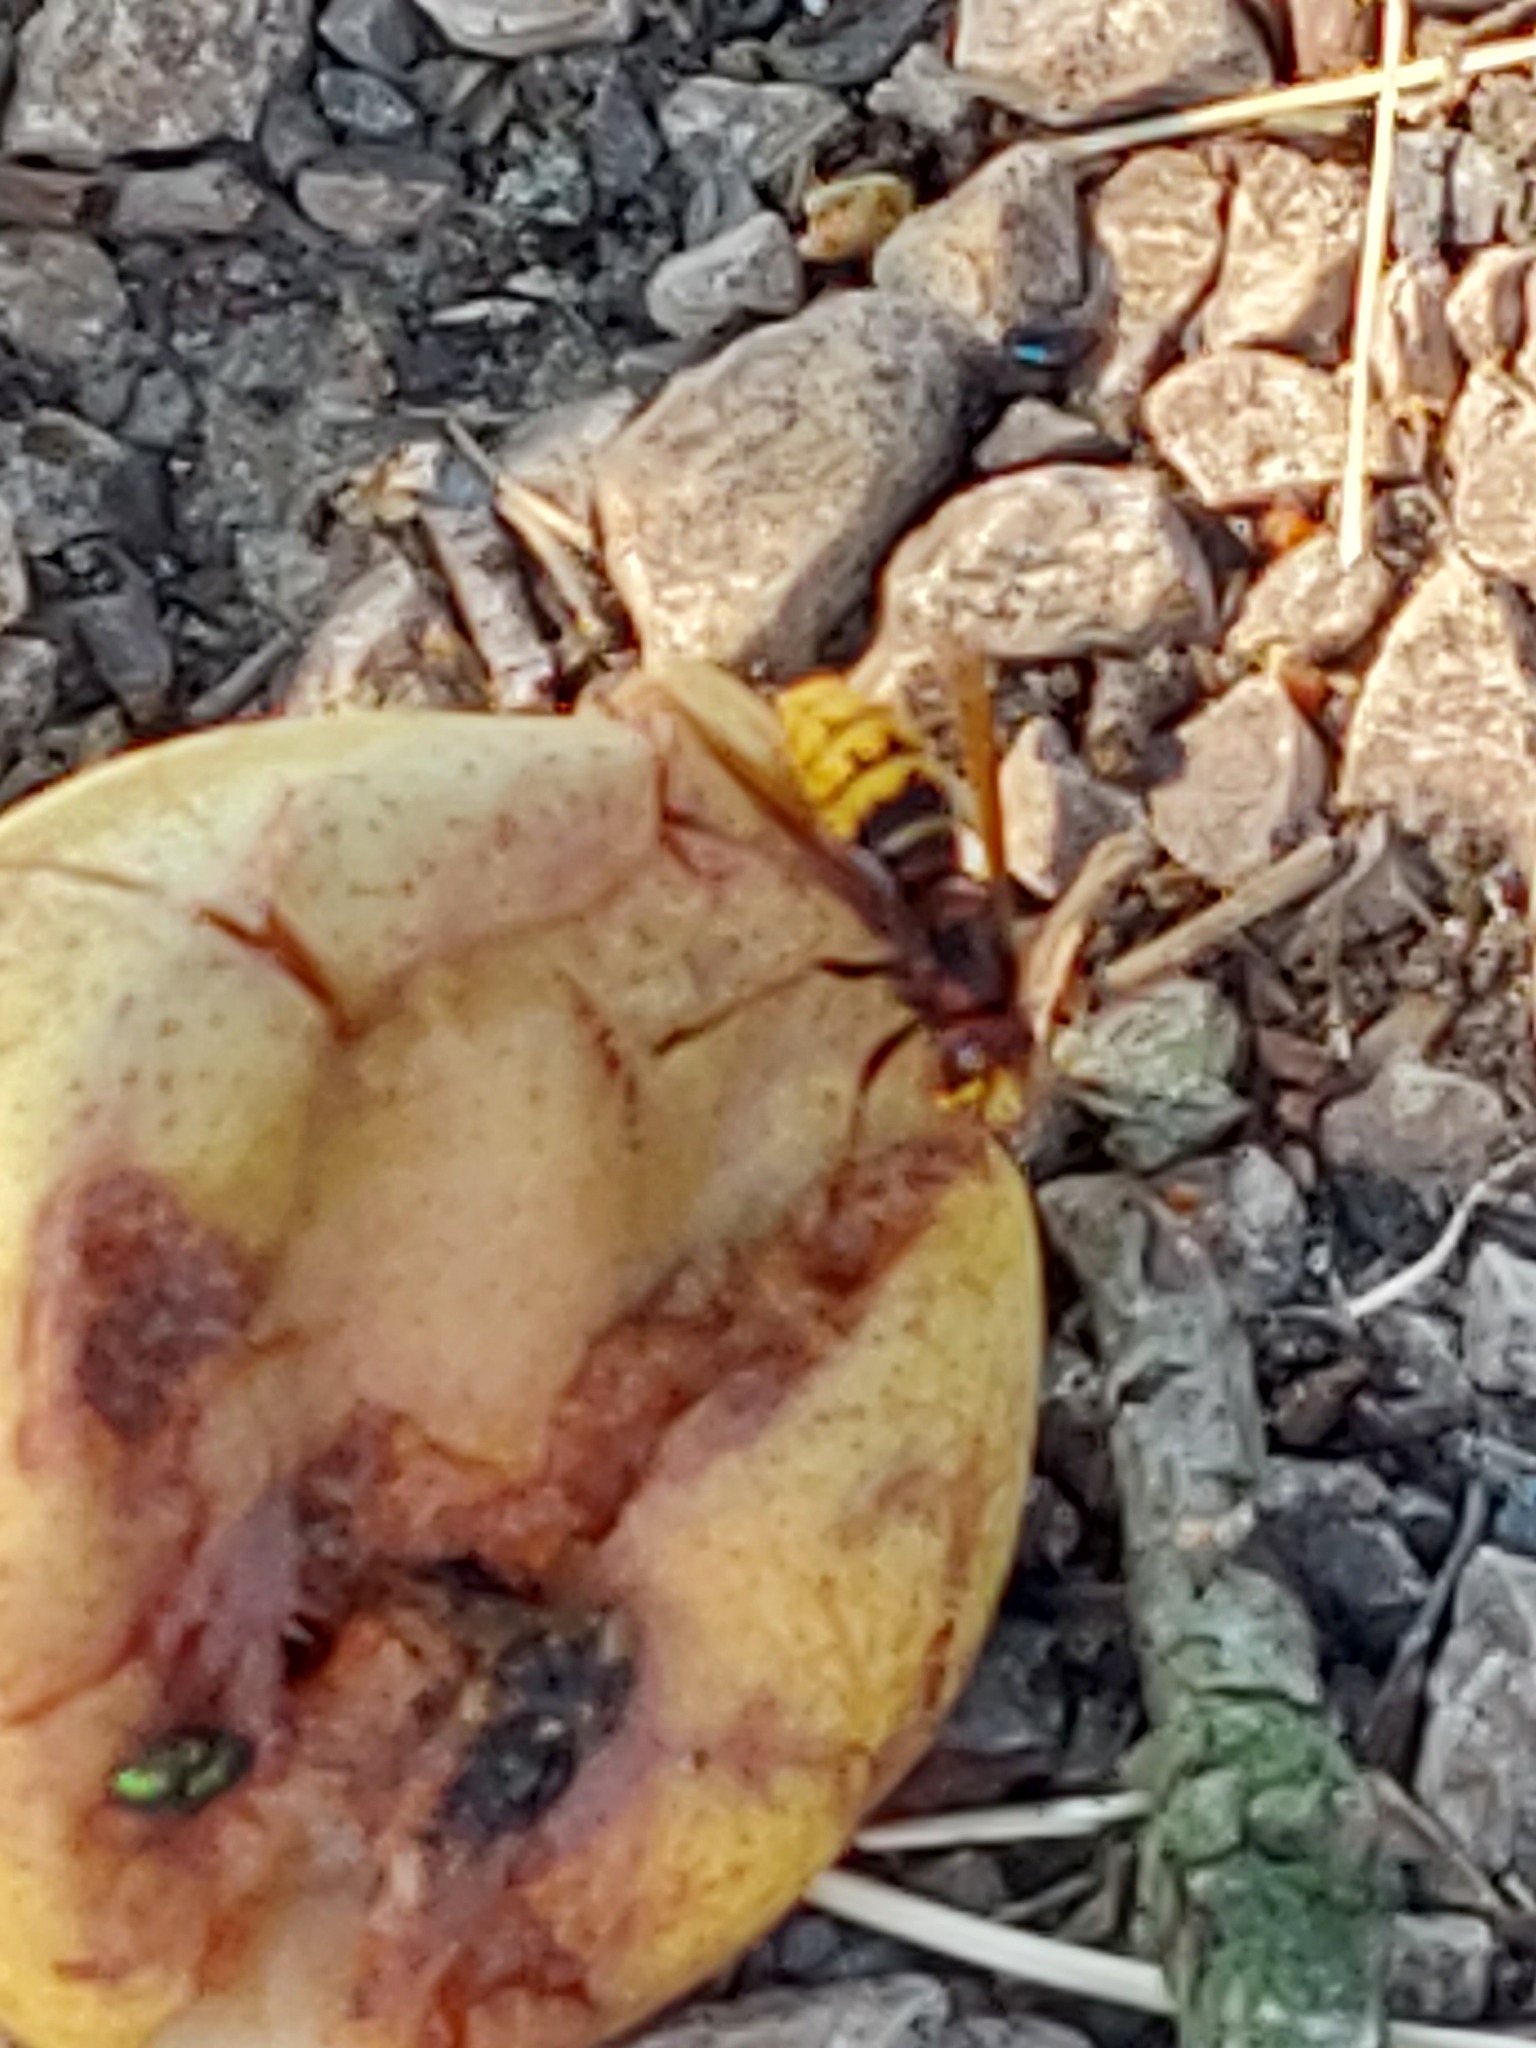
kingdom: Animalia
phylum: Arthropoda
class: Insecta
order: Hymenoptera
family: Vespidae
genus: Vespa
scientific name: Vespa crabro
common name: Hornet
